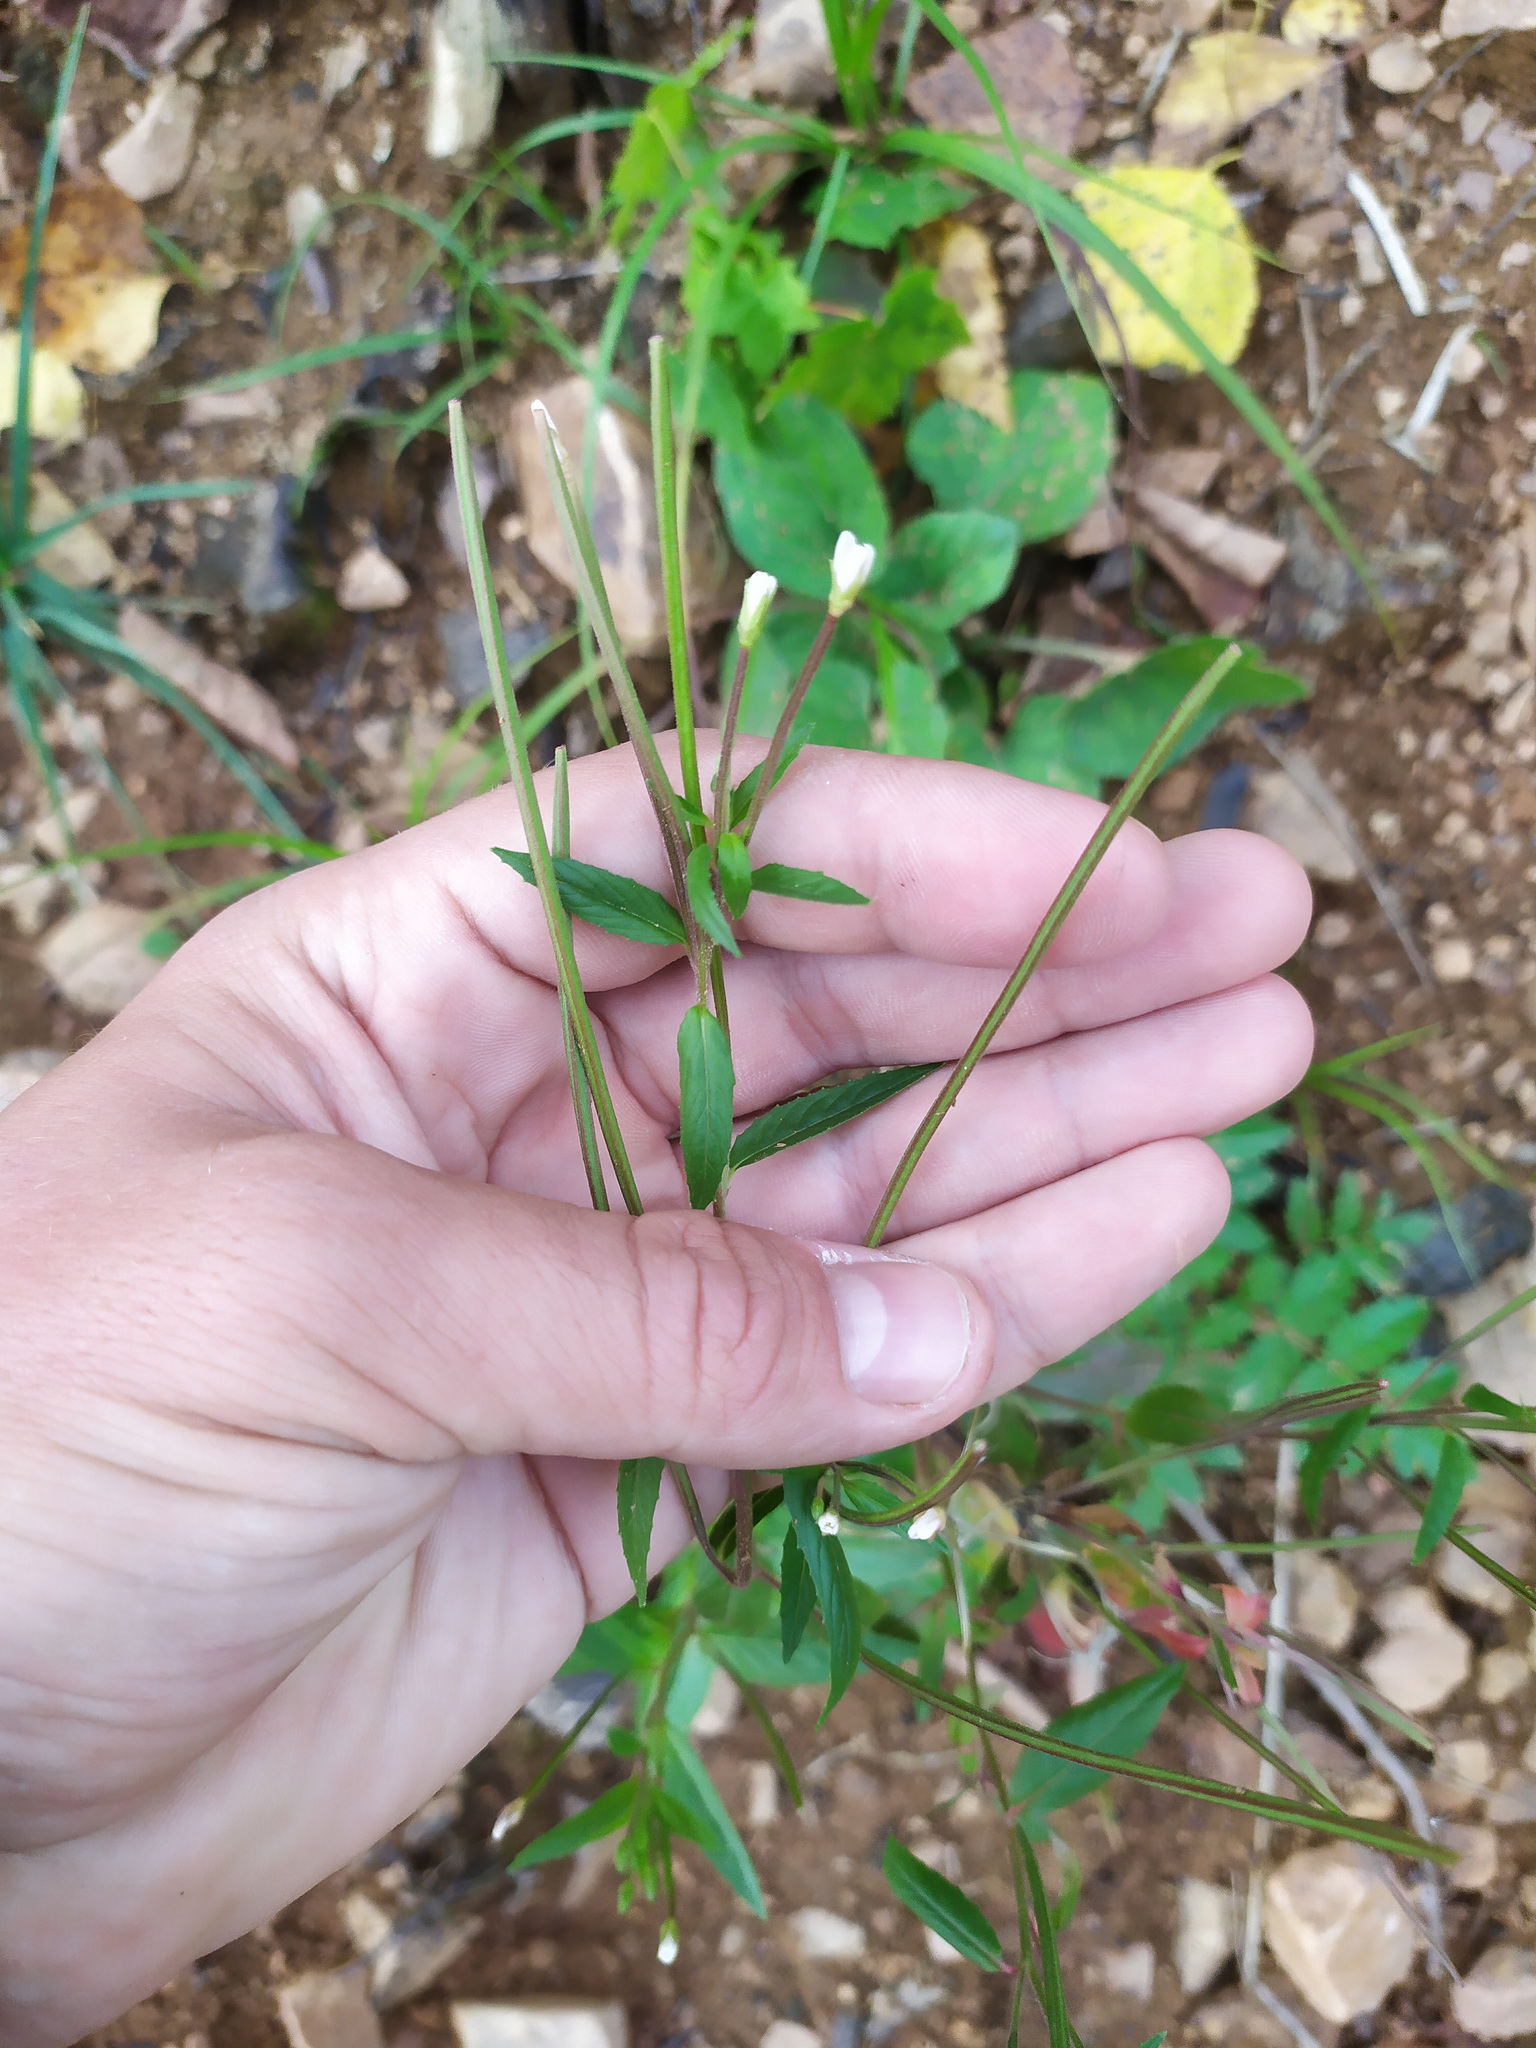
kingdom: Plantae
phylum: Tracheophyta
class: Magnoliopsida
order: Myrtales
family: Onagraceae
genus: Epilobium
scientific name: Epilobium pseudorubescens
